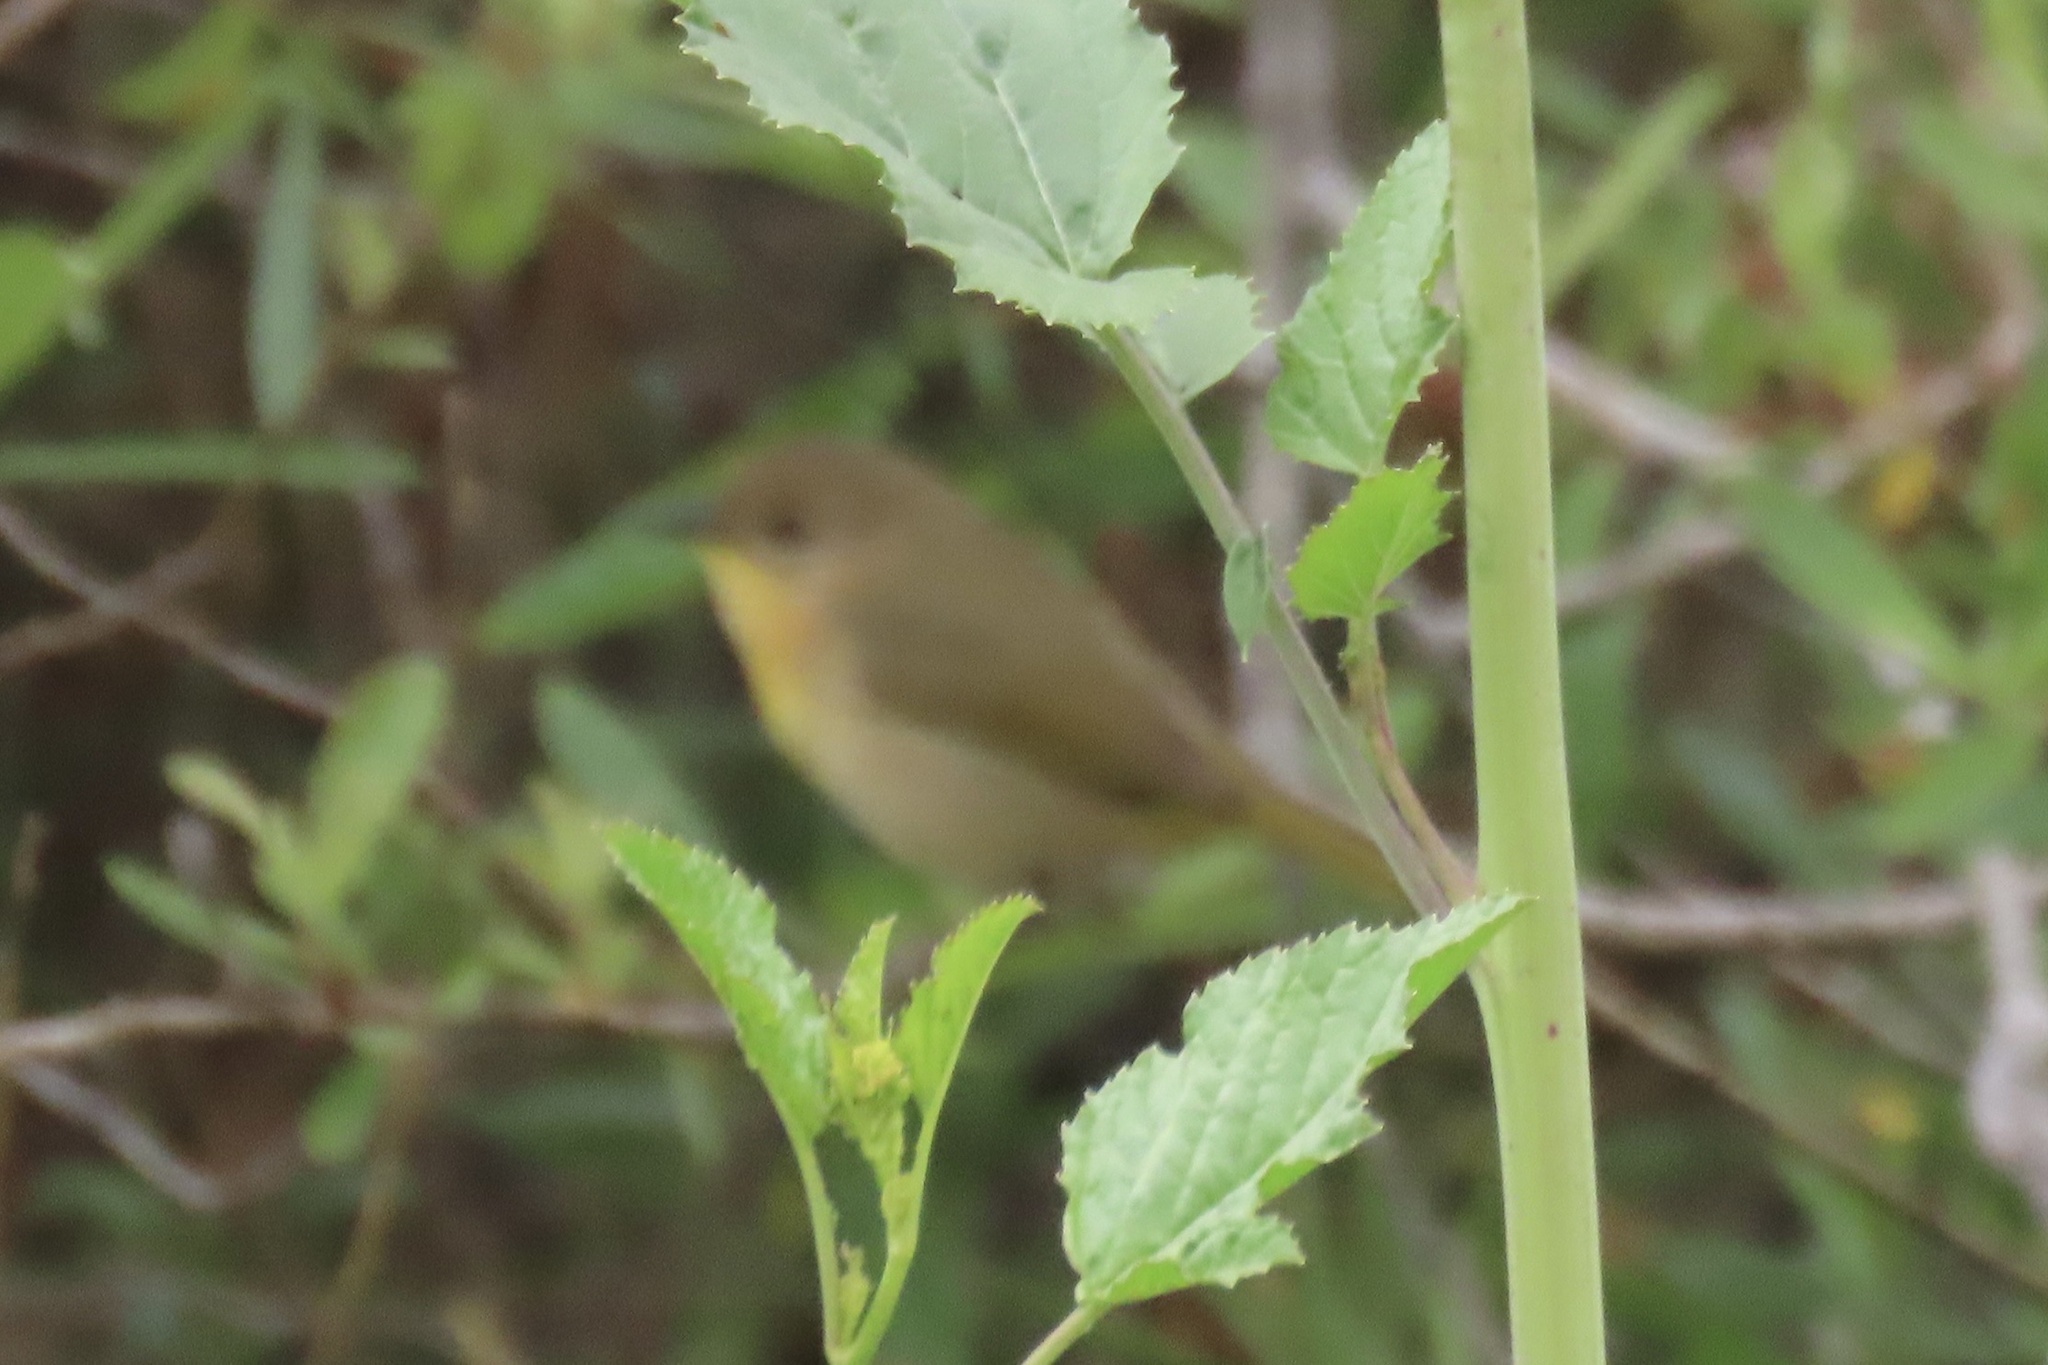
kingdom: Animalia
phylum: Chordata
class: Aves
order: Passeriformes
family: Parulidae
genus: Geothlypis
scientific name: Geothlypis trichas
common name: Common yellowthroat
